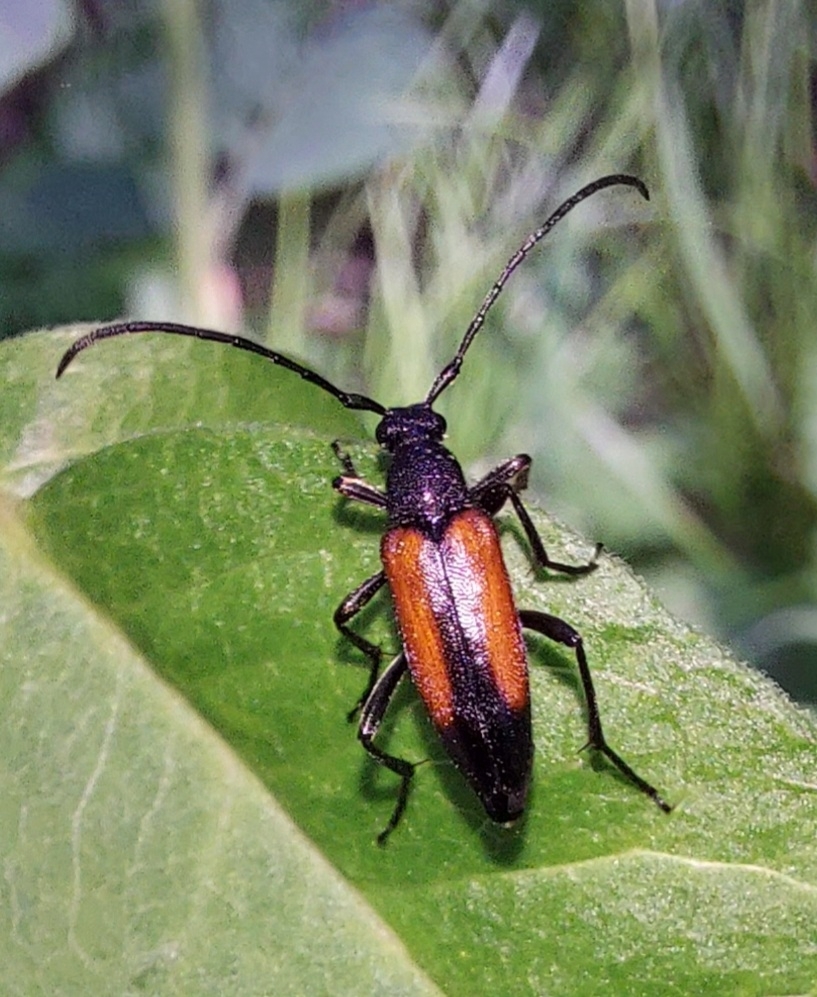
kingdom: Animalia
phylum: Arthropoda
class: Insecta
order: Coleoptera
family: Cerambycidae
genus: Stenurella
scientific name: Stenurella melanura
